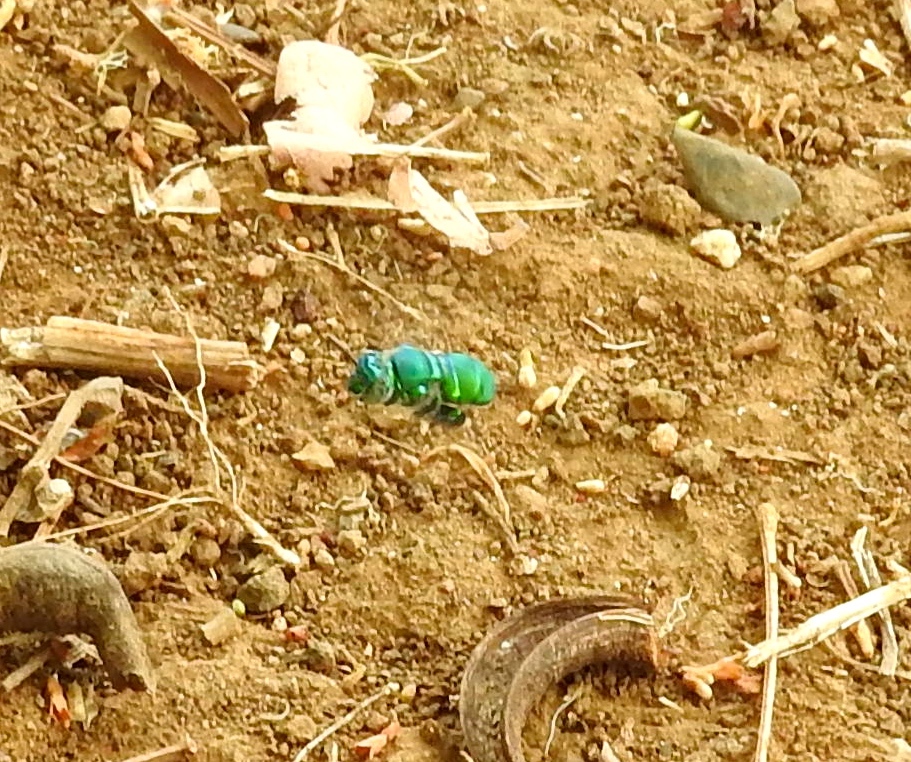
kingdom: Animalia
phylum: Arthropoda
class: Insecta
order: Hymenoptera
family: Apidae
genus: Euglossa
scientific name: Euglossa
